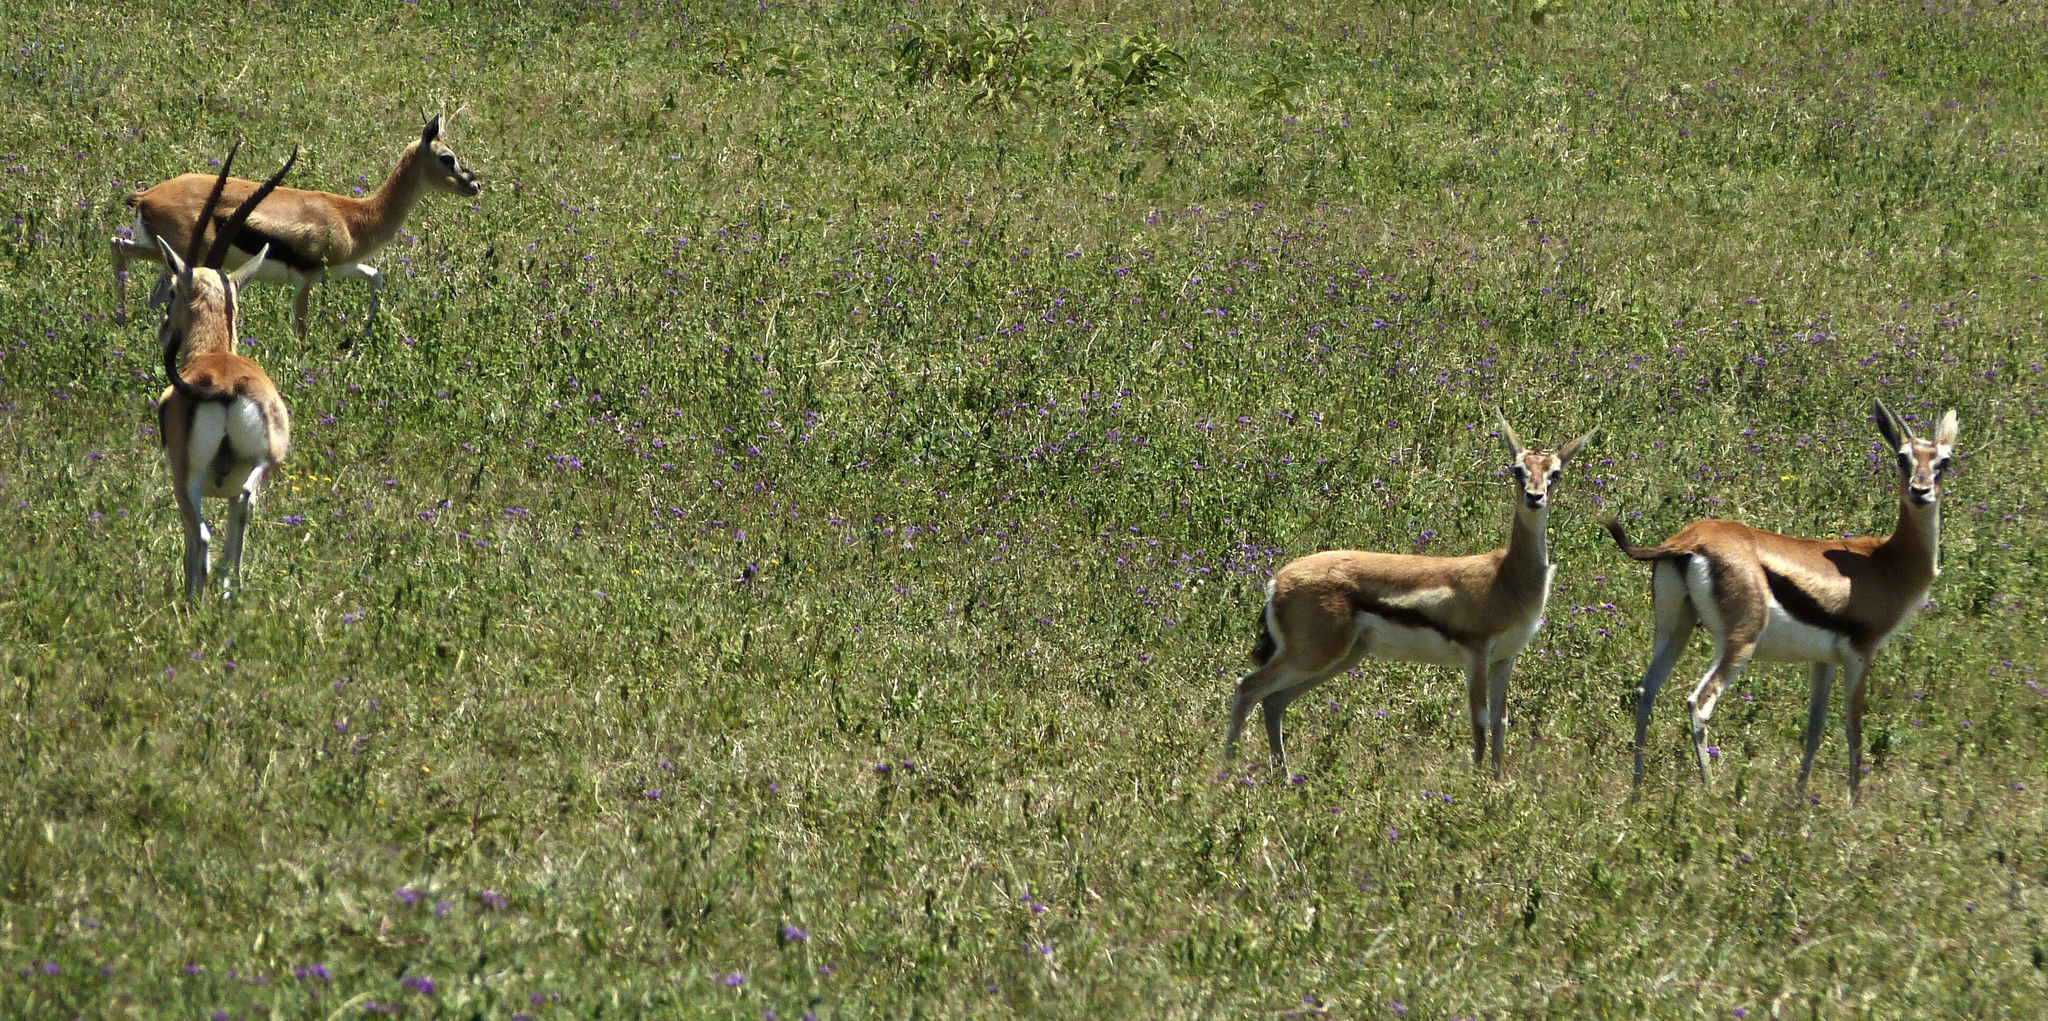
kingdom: Animalia
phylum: Chordata
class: Mammalia
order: Artiodactyla
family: Bovidae
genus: Eudorcas
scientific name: Eudorcas thomsonii
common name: Thomson's gazelle
